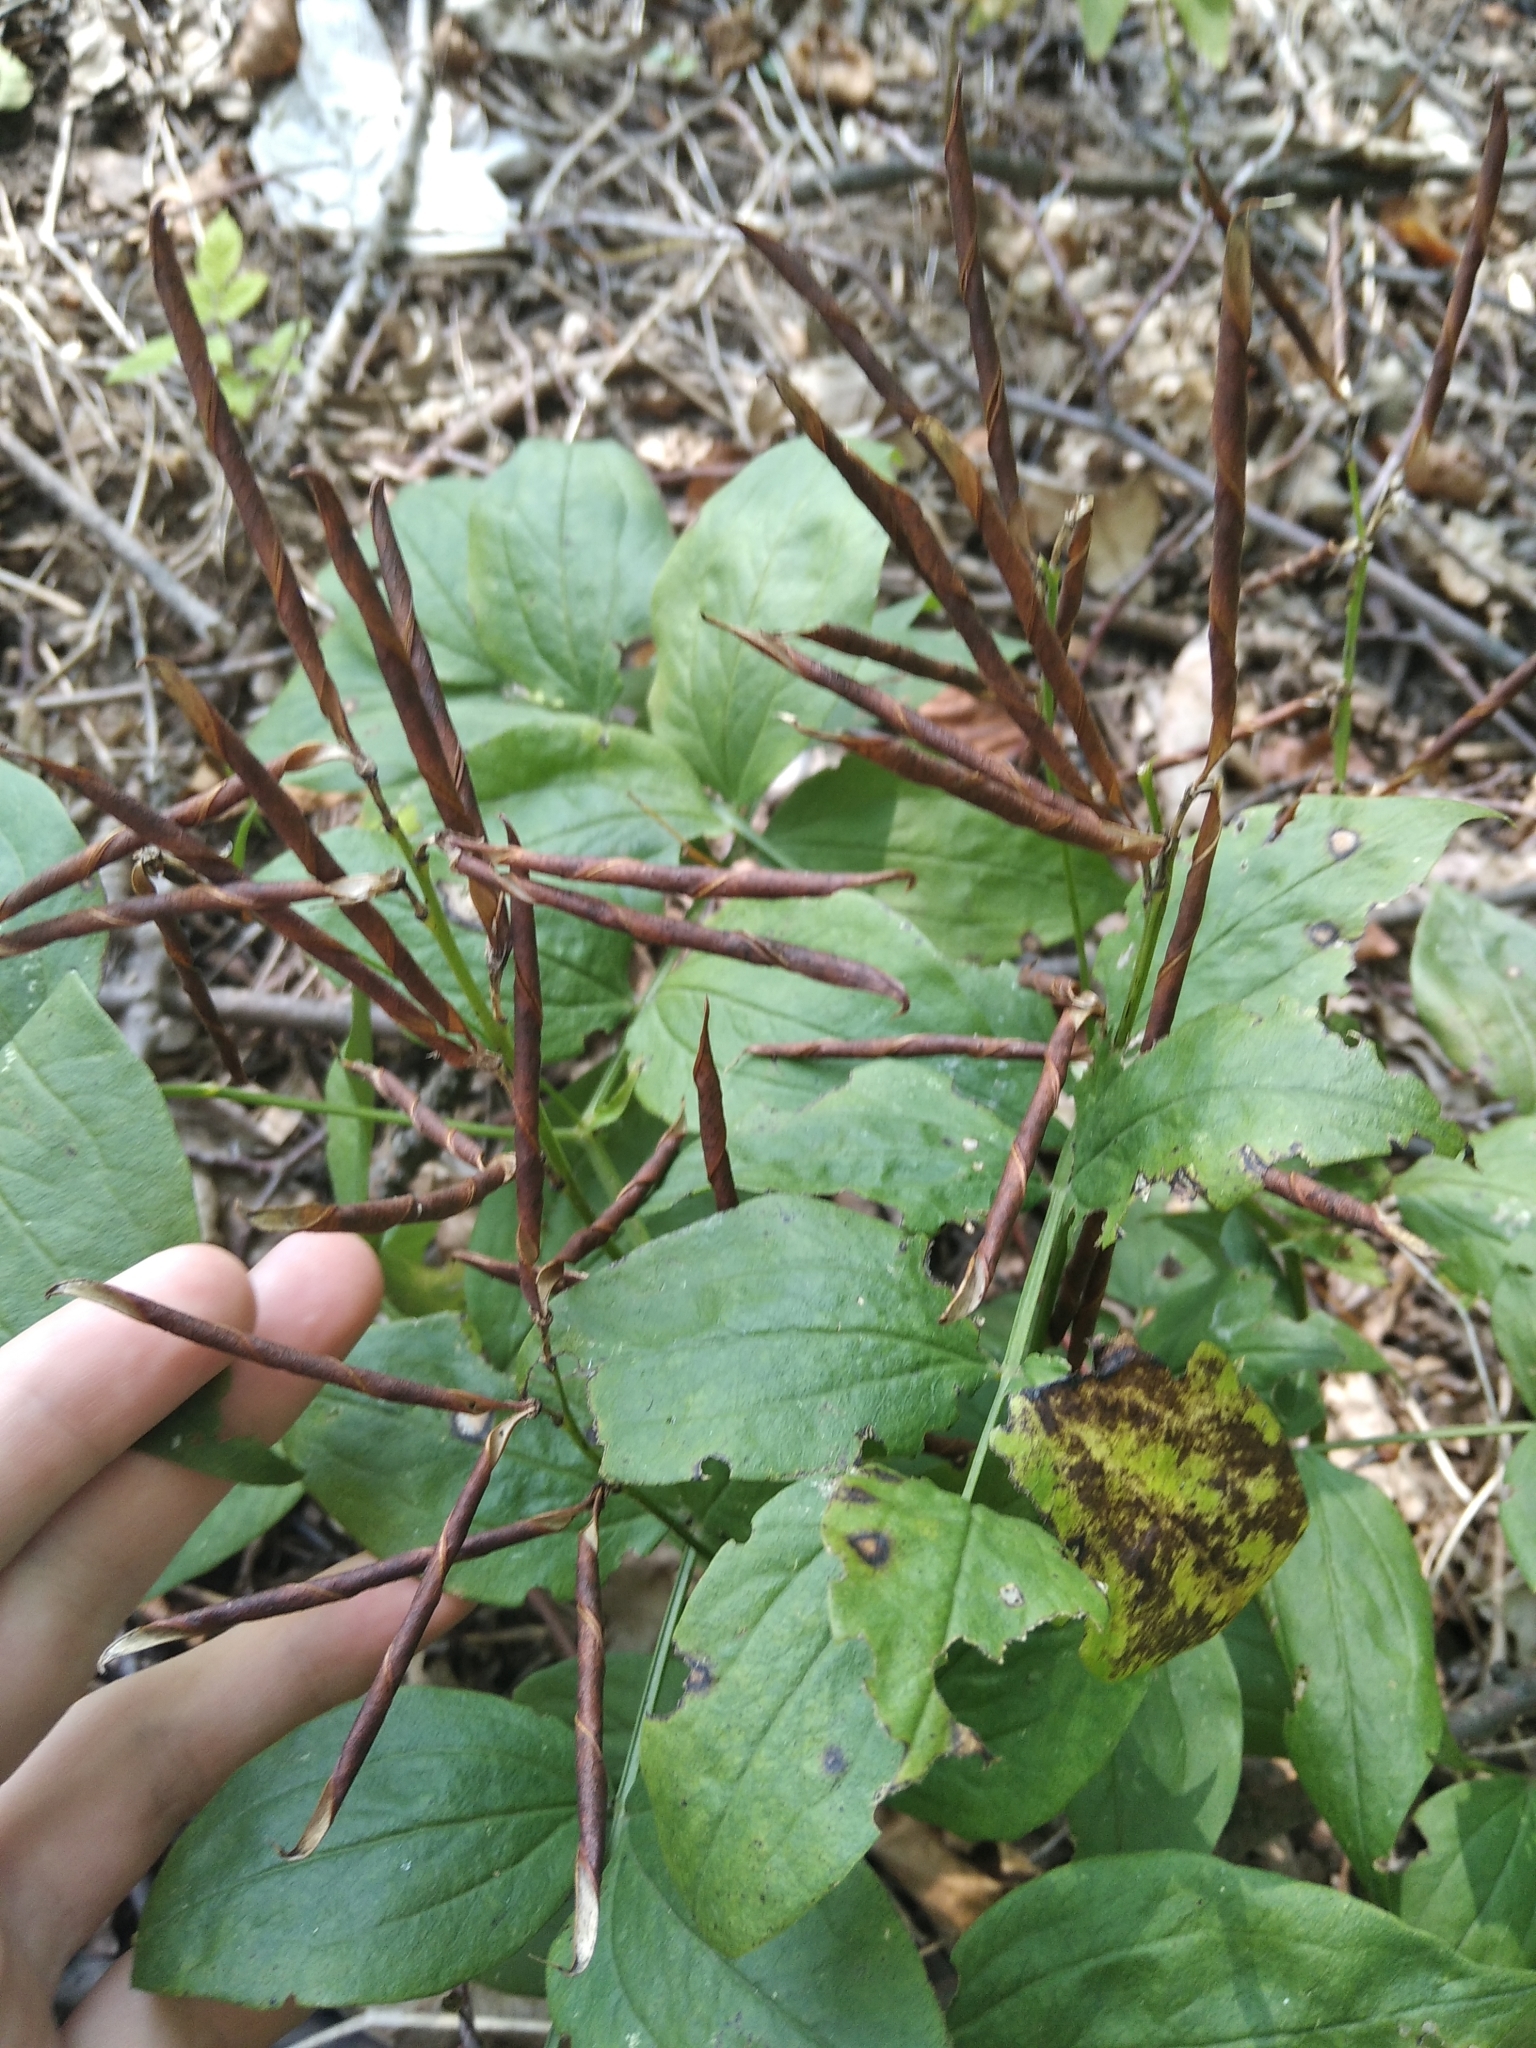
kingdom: Plantae
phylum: Tracheophyta
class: Magnoliopsida
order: Fabales
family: Fabaceae
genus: Lathyrus
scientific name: Lathyrus vernus
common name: Spring pea
